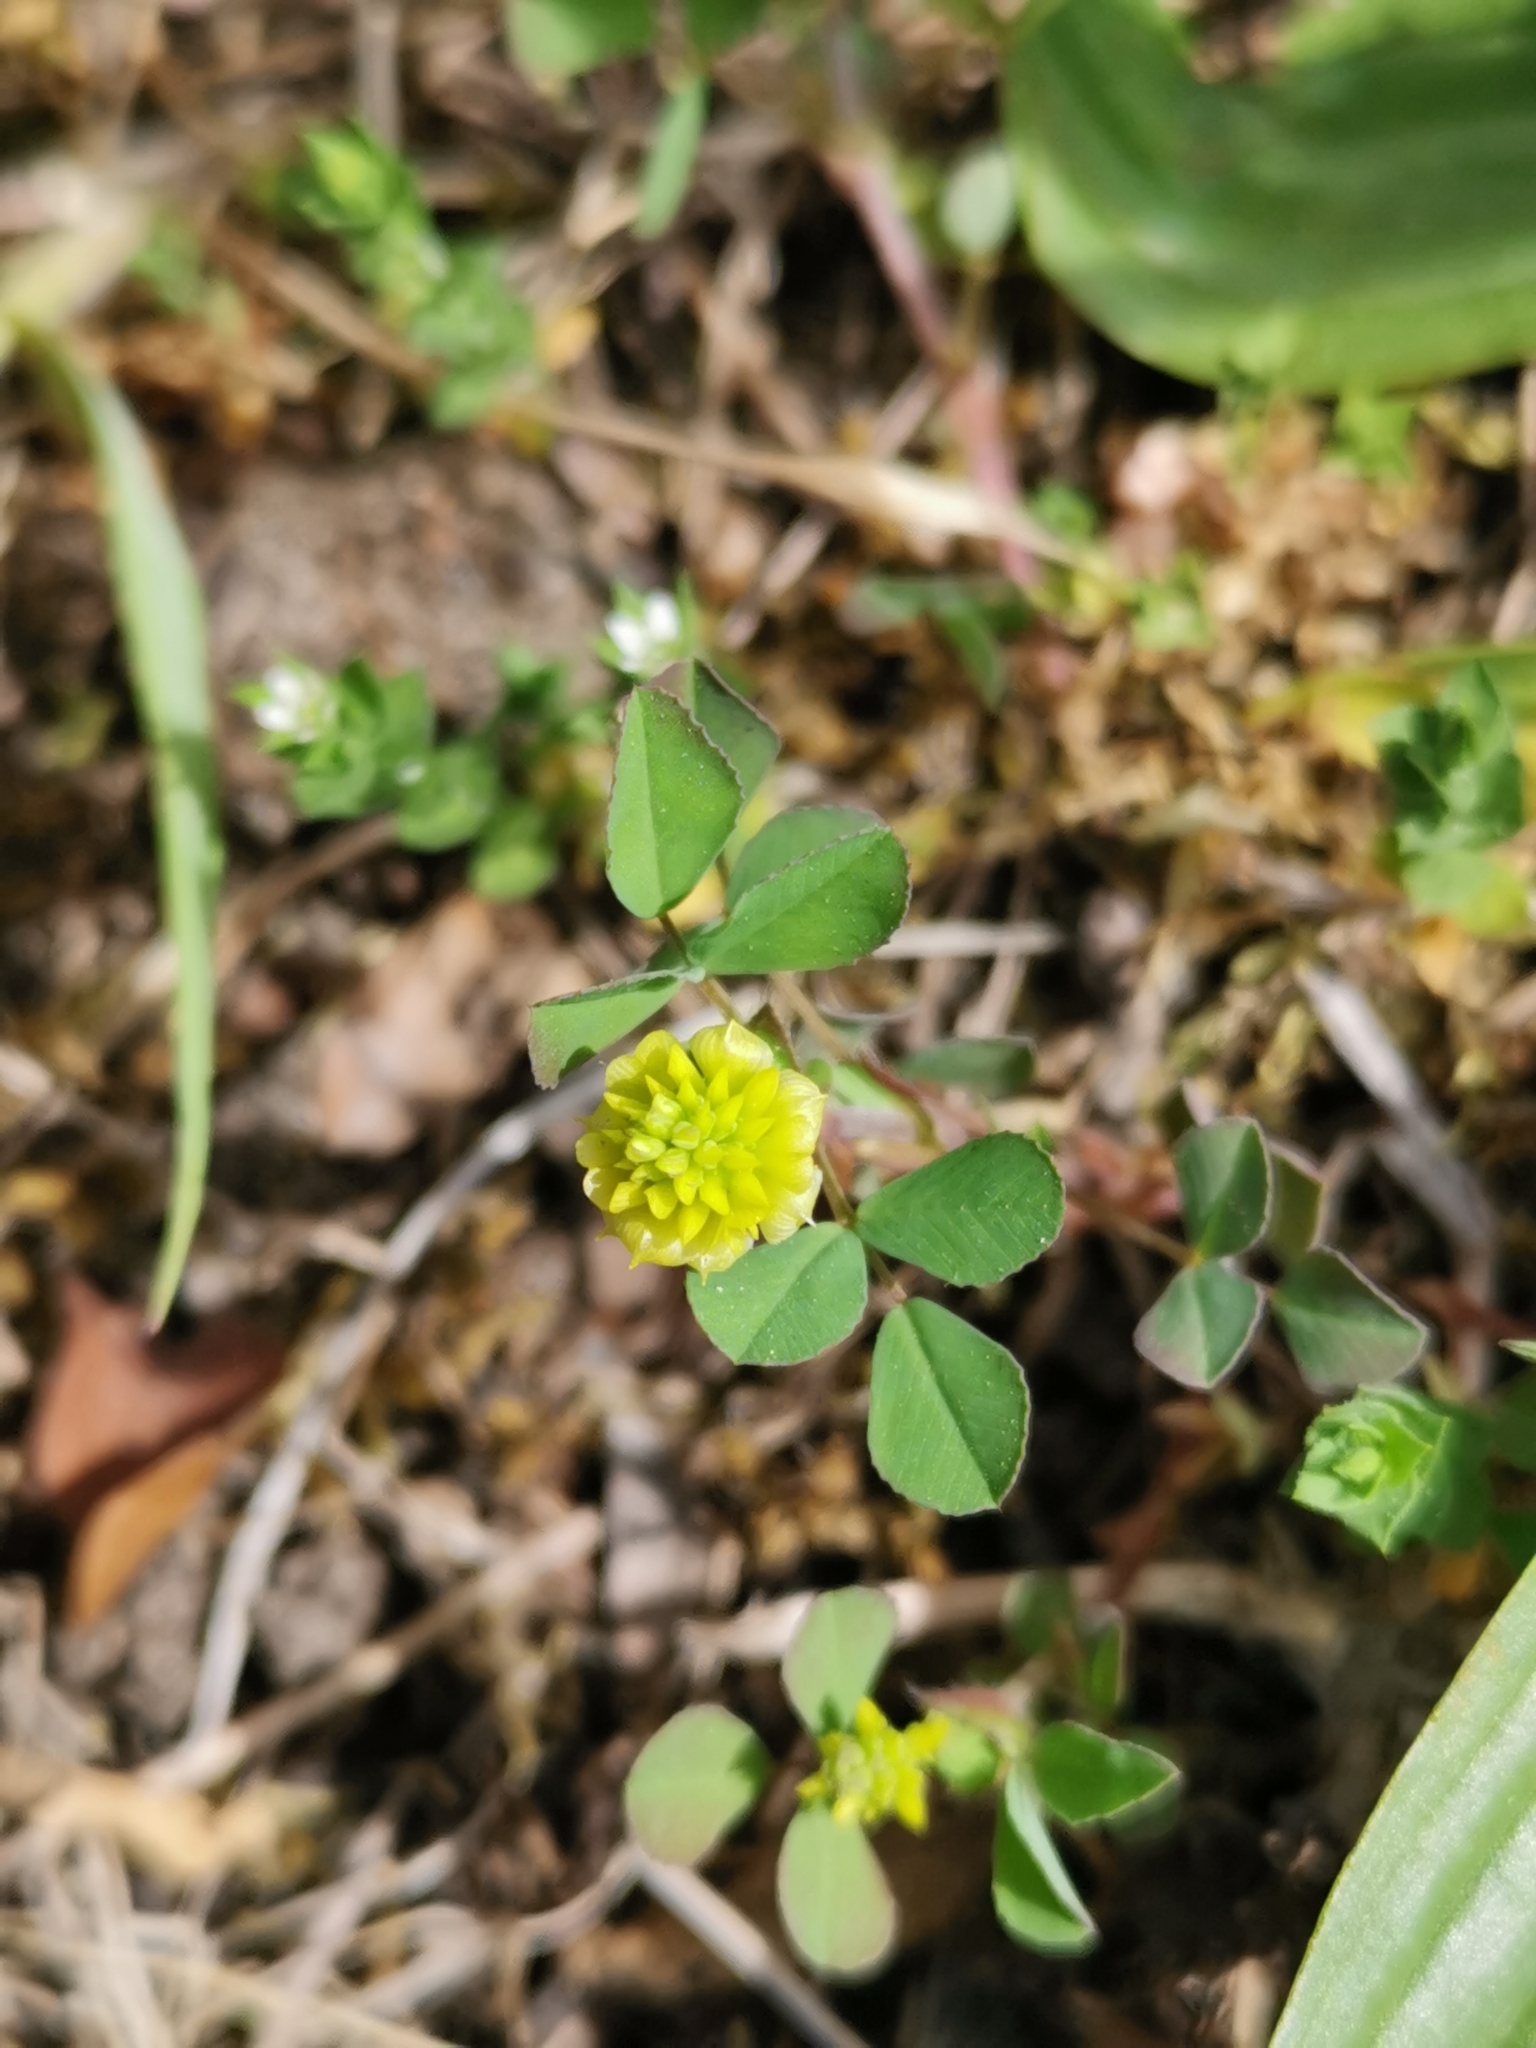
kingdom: Plantae
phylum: Tracheophyta
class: Magnoliopsida
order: Fabales
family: Fabaceae
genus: Trifolium
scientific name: Trifolium campestre
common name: Field clover
